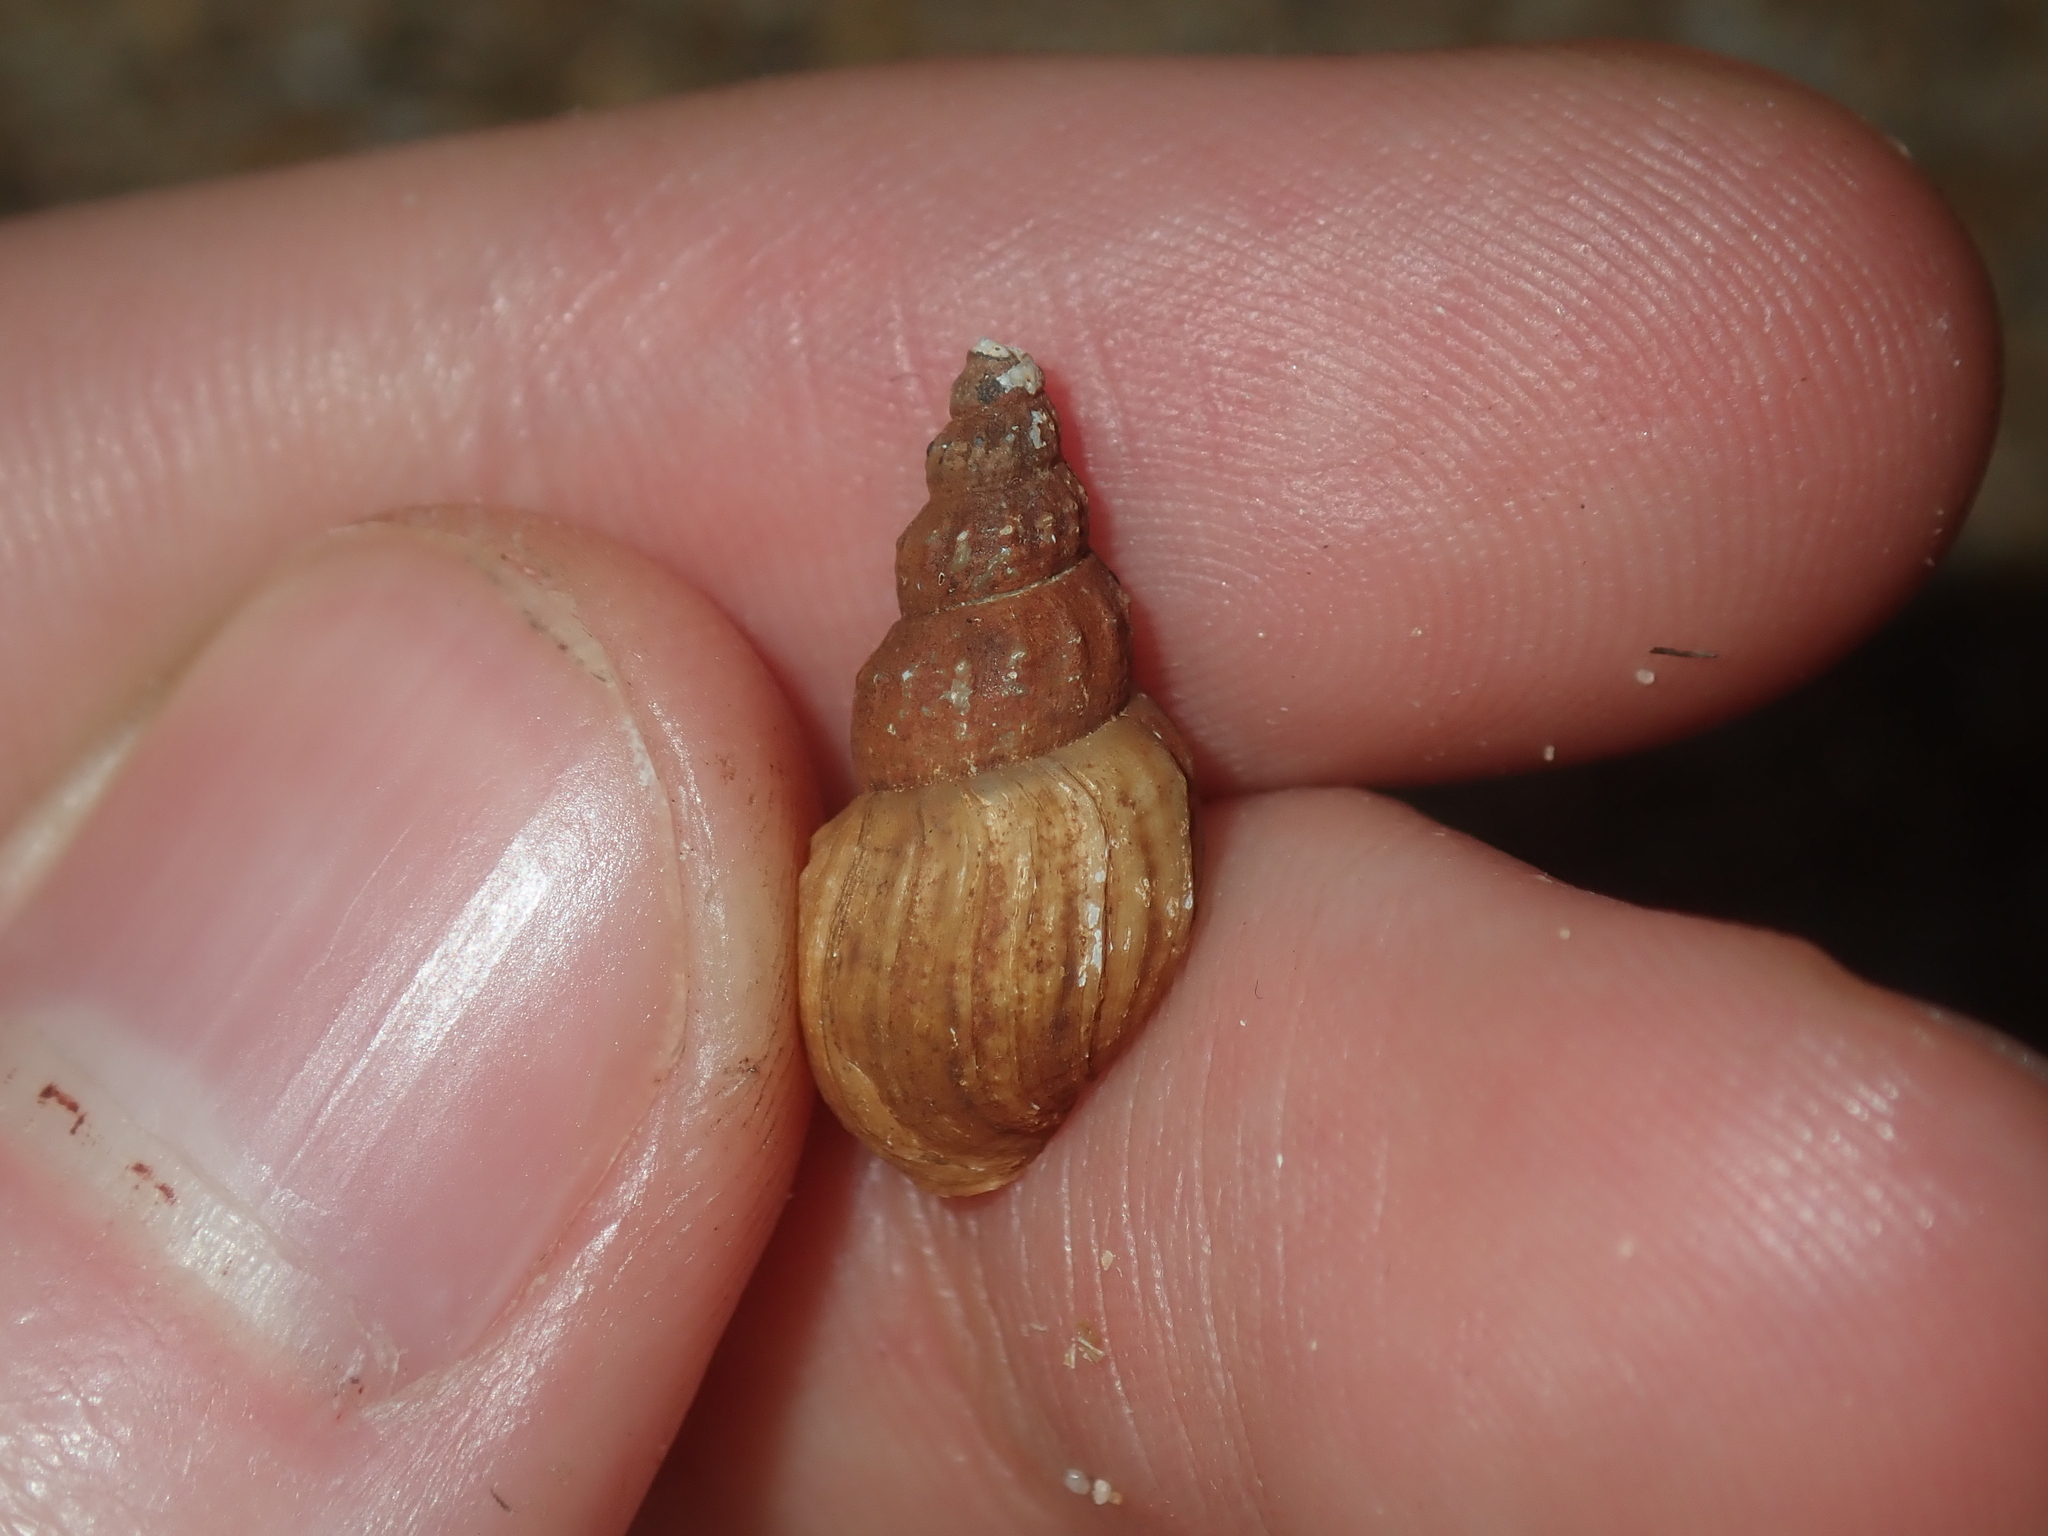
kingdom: Animalia
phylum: Mollusca
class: Gastropoda
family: Thiaridae
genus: Plotiopsis
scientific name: Plotiopsis balonnensis
